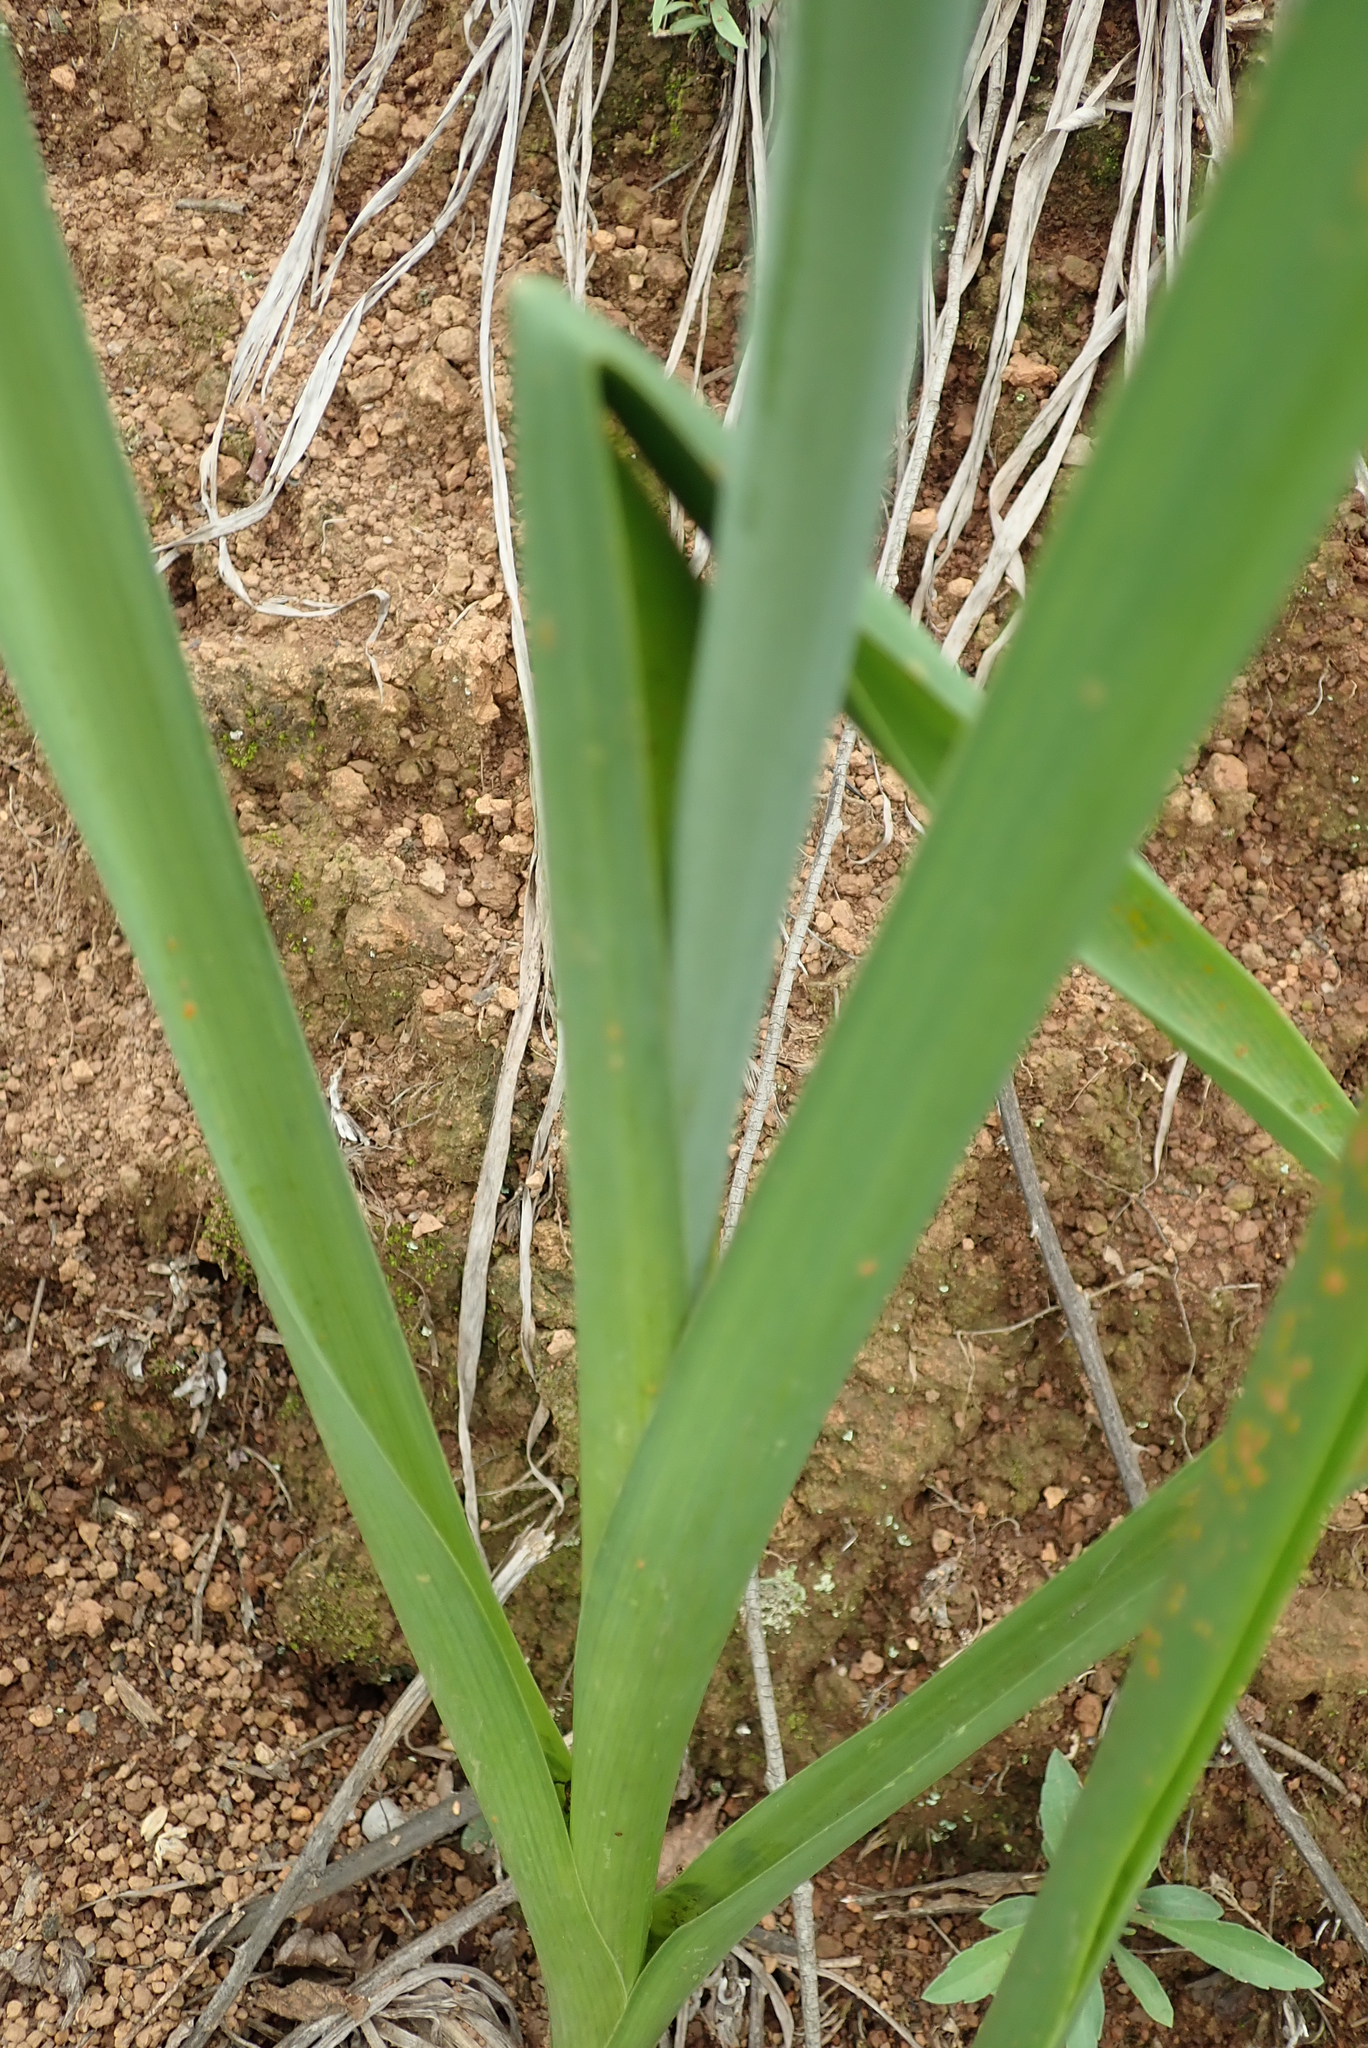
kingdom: Plantae
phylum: Tracheophyta
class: Liliopsida
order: Asparagales
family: Asparagaceae
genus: Albuca
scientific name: Albuca virens
